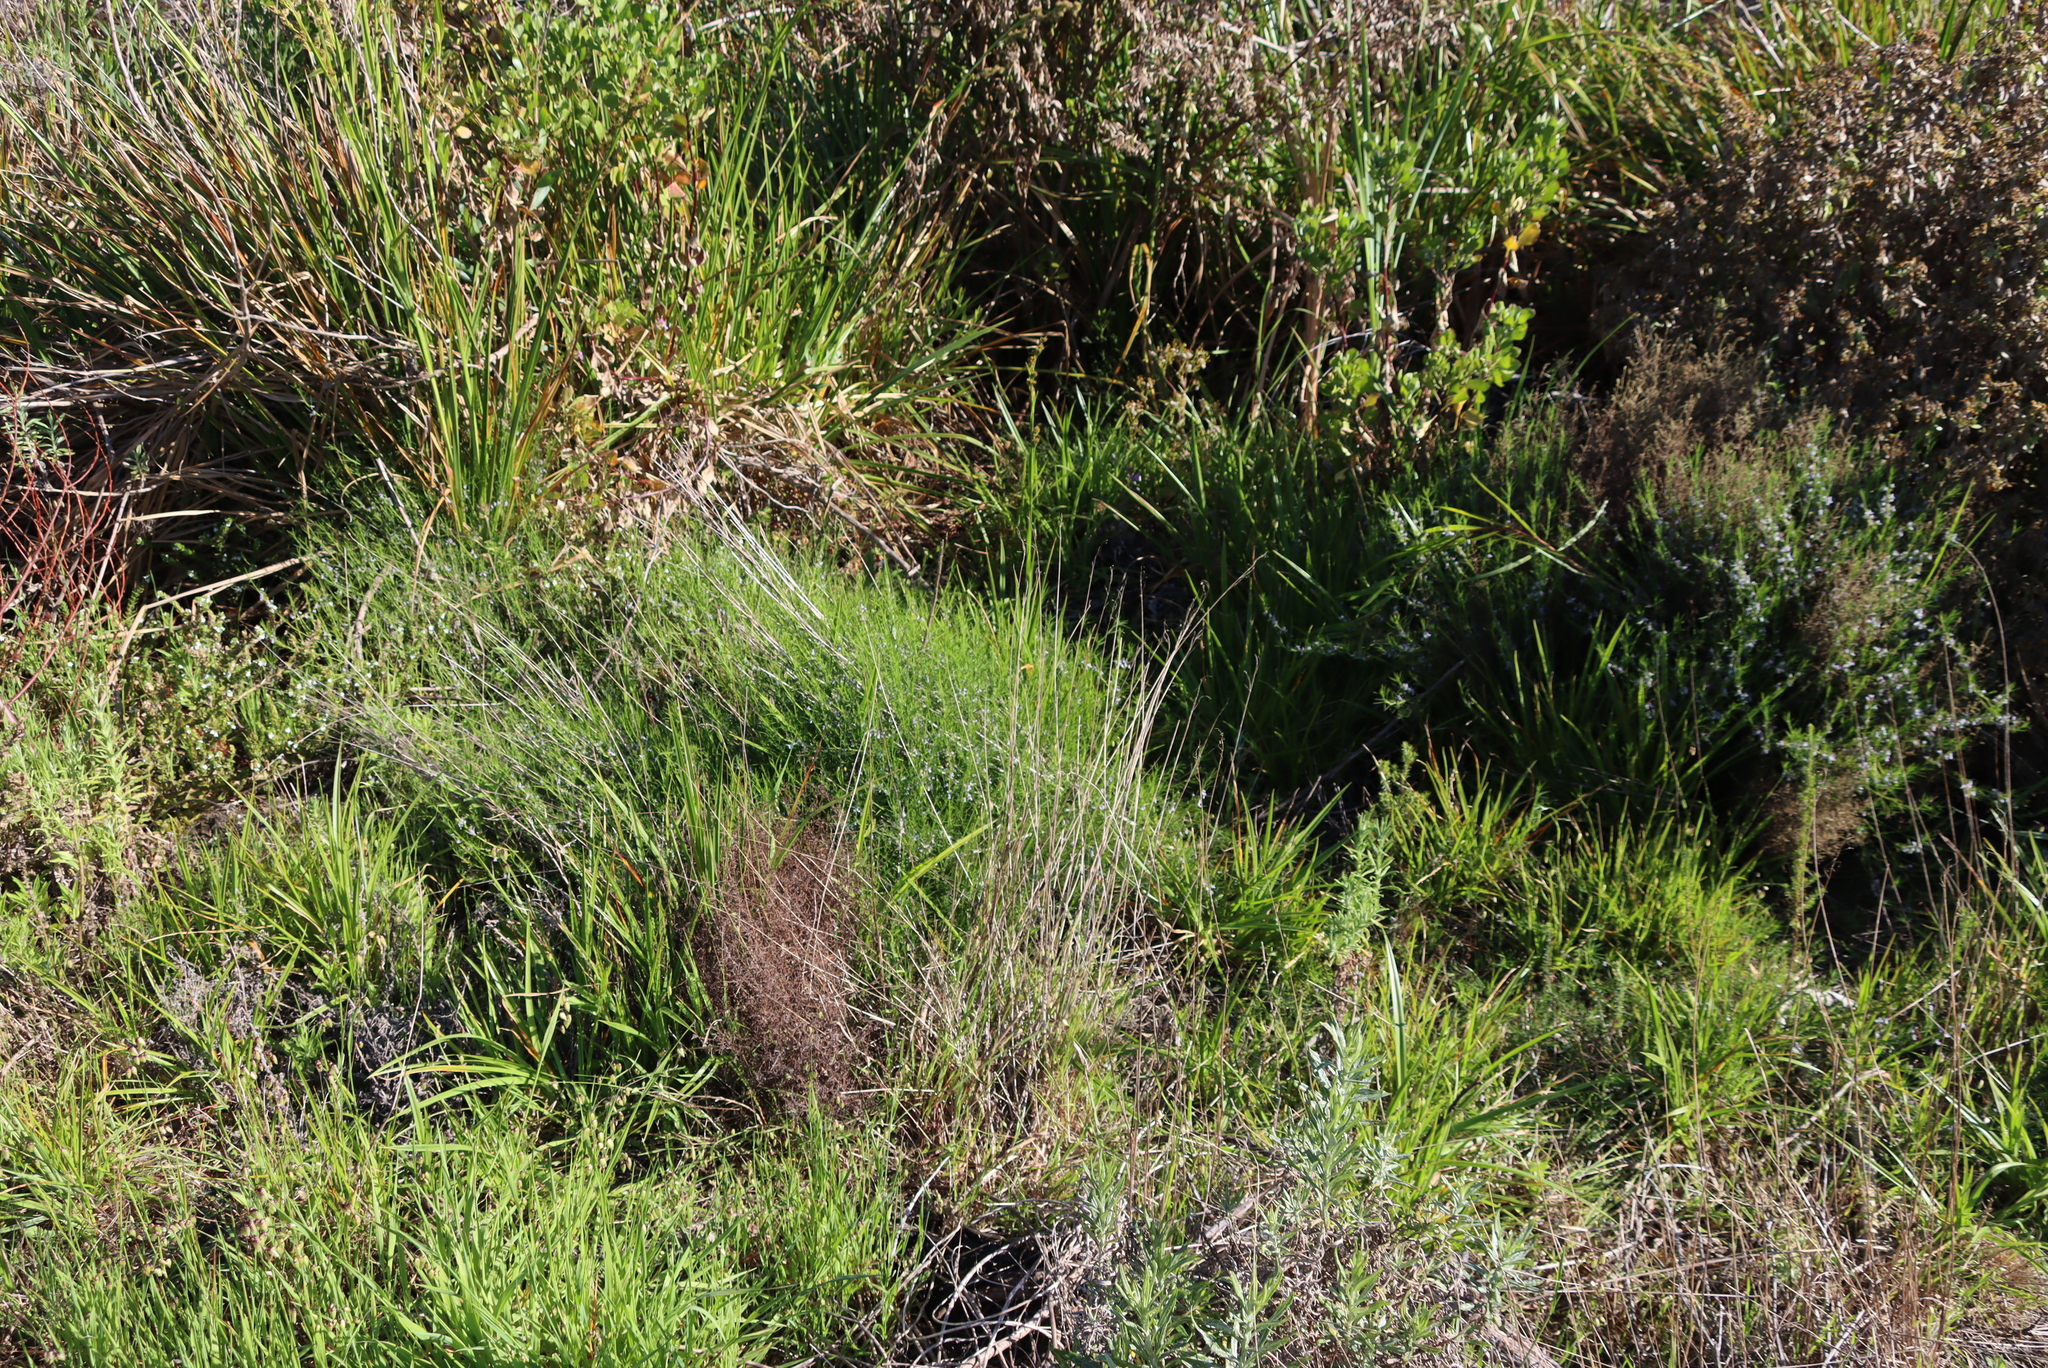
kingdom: Plantae
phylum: Tracheophyta
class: Magnoliopsida
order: Fabales
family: Fabaceae
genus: Psoralea
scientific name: Psoralea fascicularis
